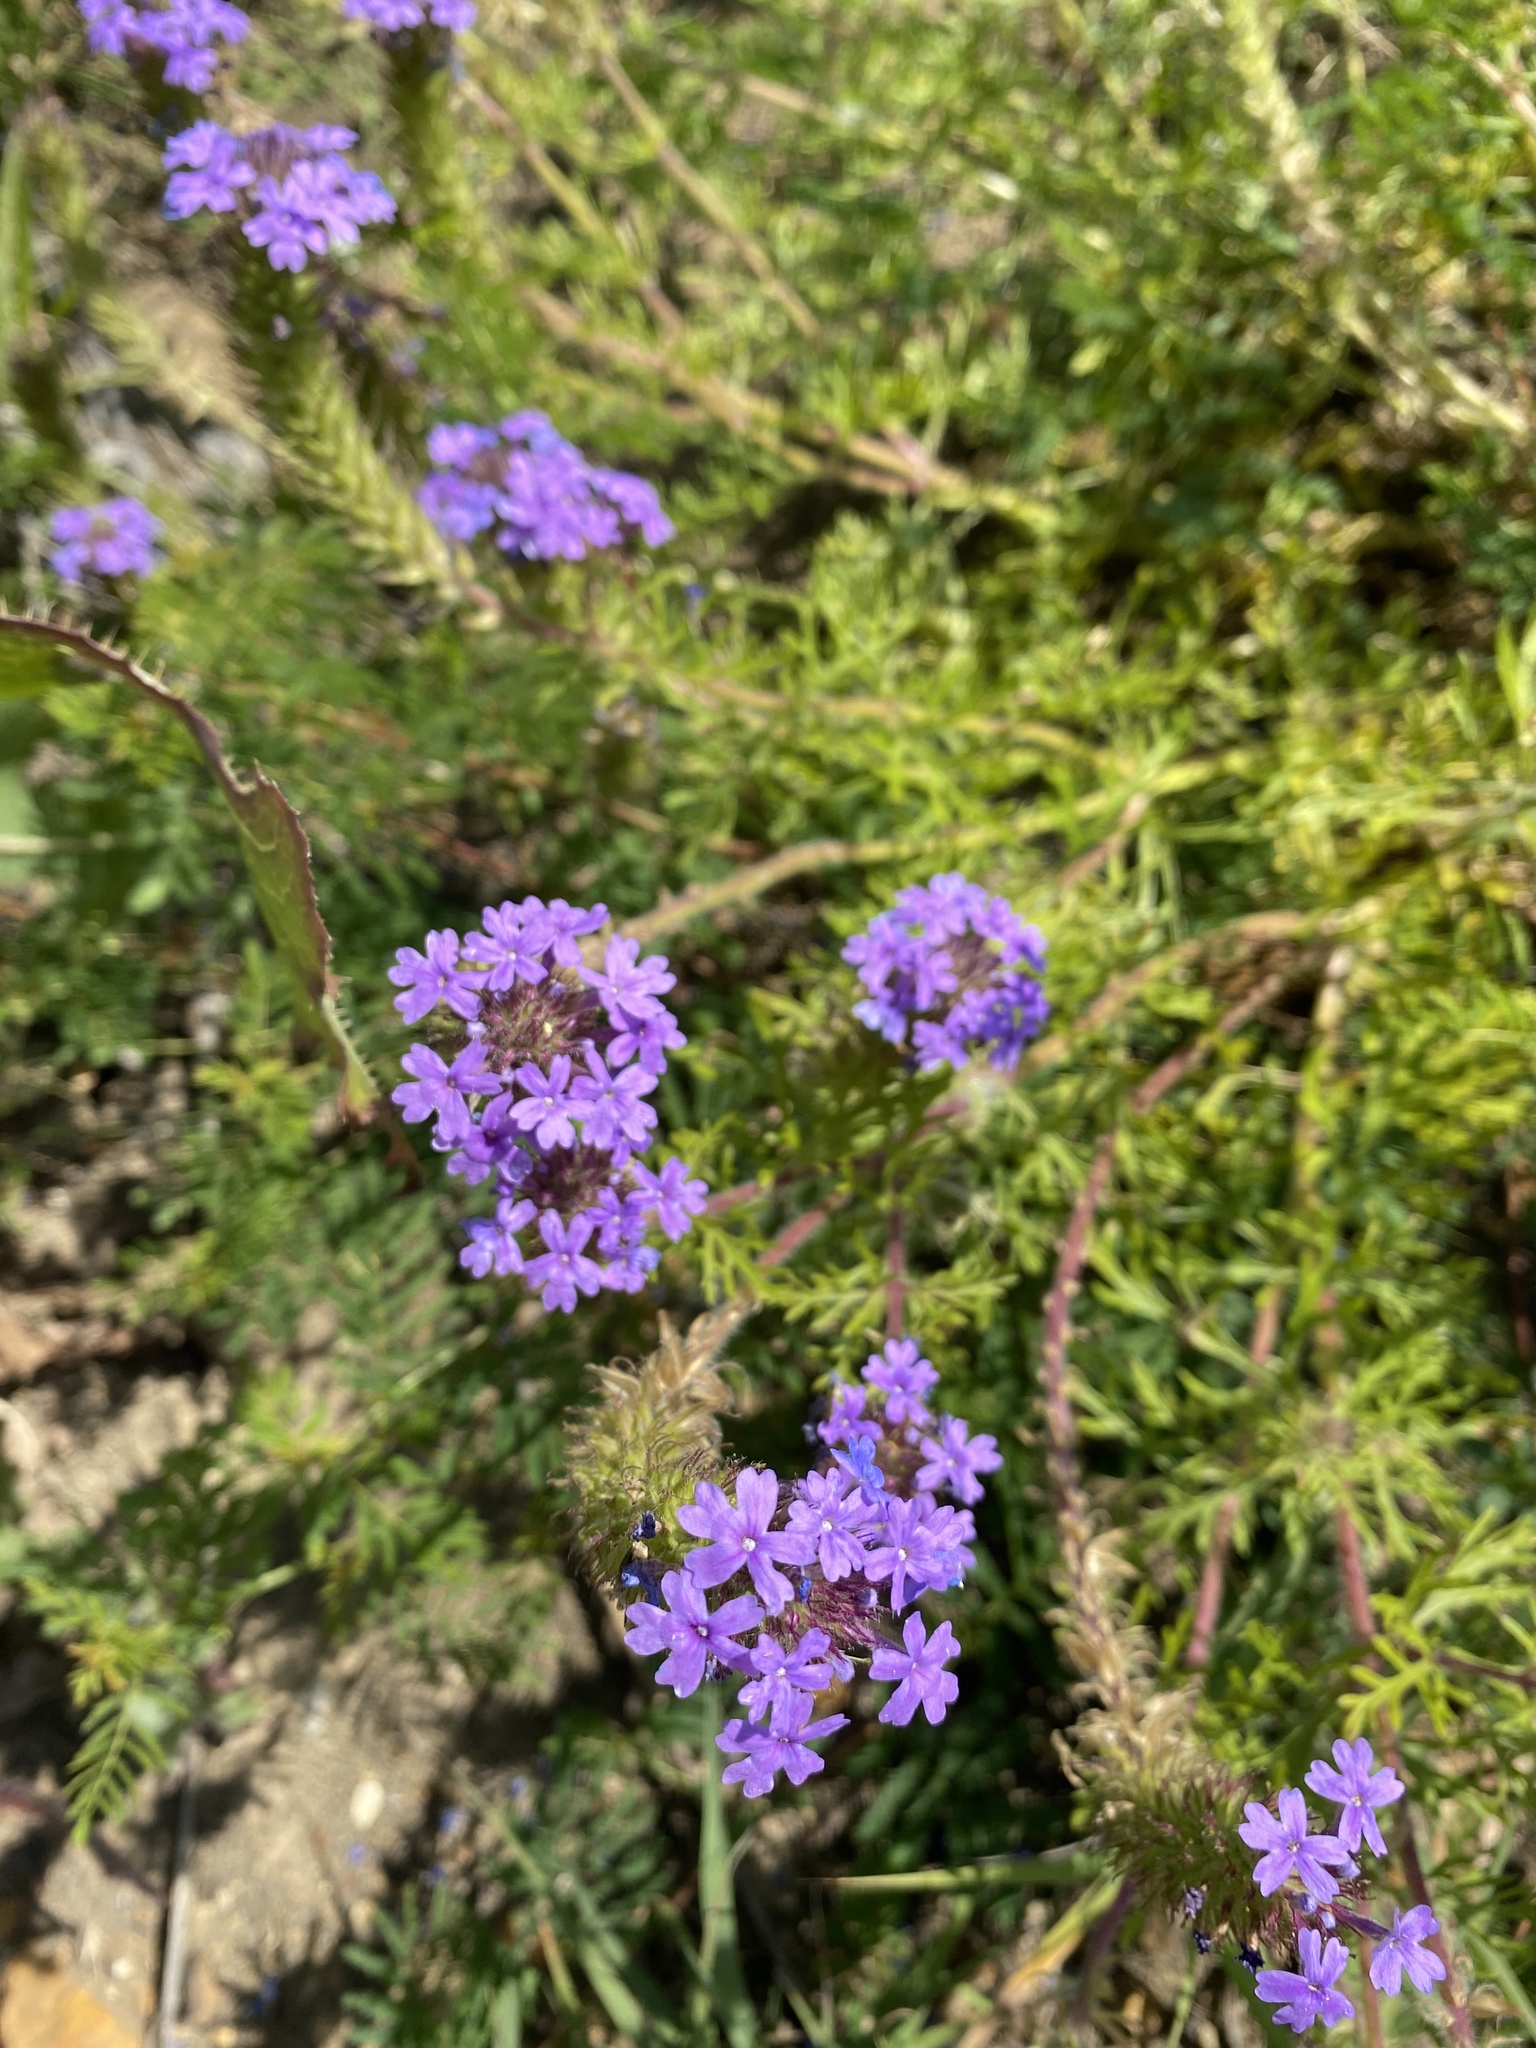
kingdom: Plantae
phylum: Tracheophyta
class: Magnoliopsida
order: Lamiales
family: Verbenaceae
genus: Verbena
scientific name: Verbena bipinnatifida
